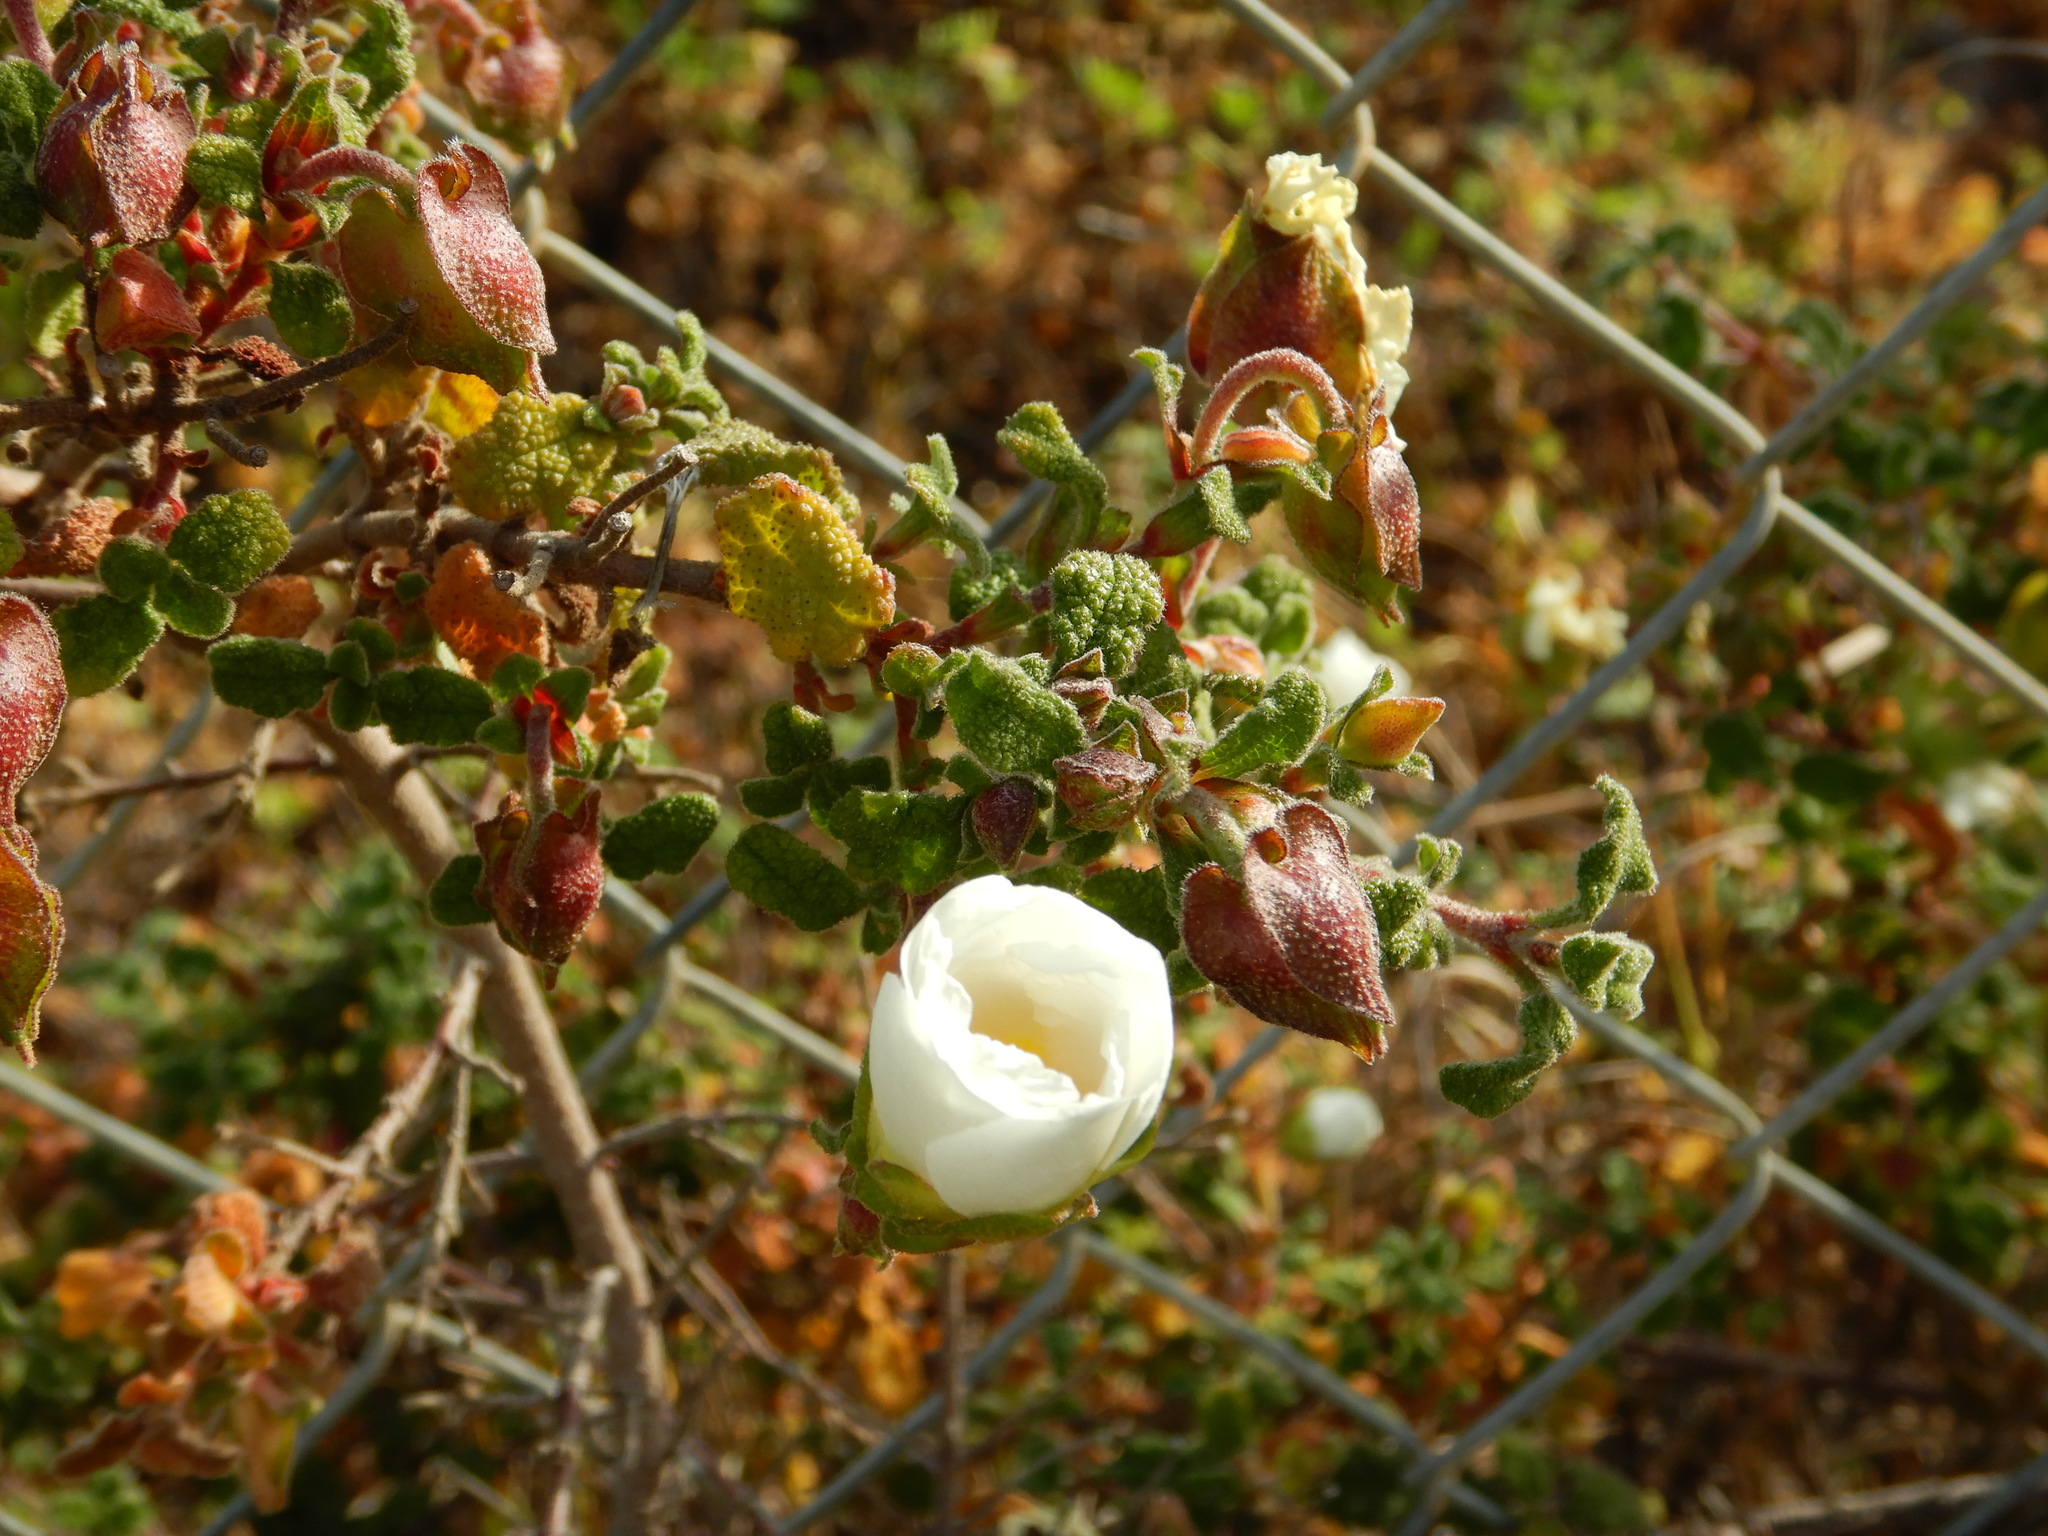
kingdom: Plantae
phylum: Tracheophyta
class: Magnoliopsida
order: Malvales
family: Cistaceae
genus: Cistus
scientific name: Cistus salviifolius
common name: Salvia cistus
